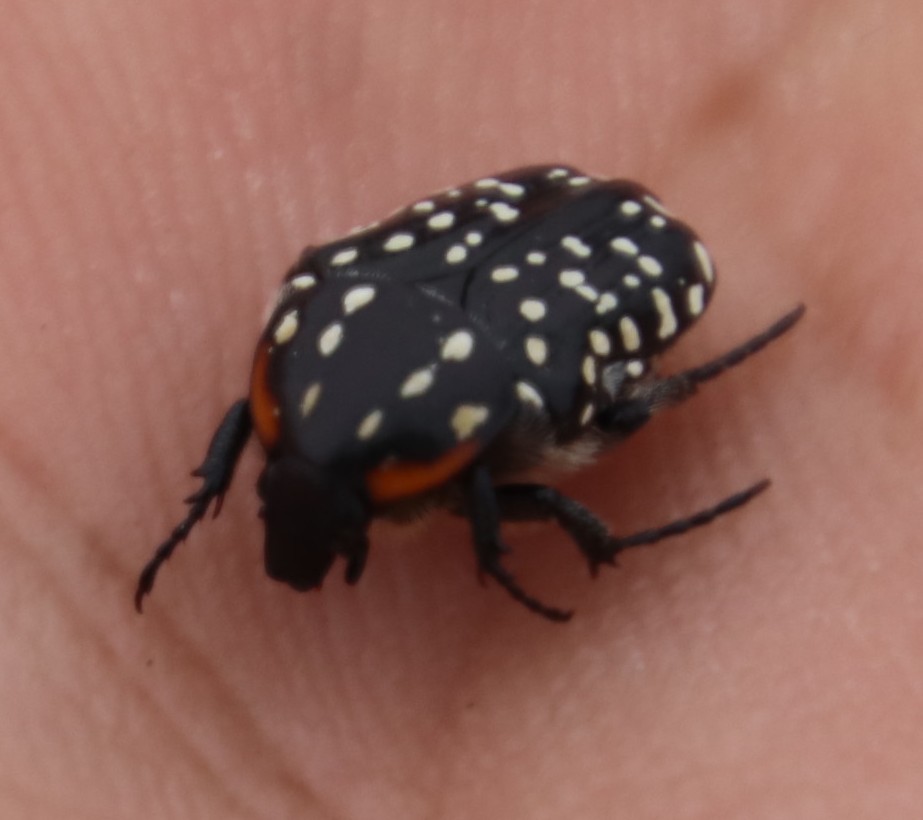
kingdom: Animalia
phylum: Arthropoda
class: Insecta
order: Coleoptera
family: Scarabaeidae
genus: Oxythyrea
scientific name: Oxythyrea
